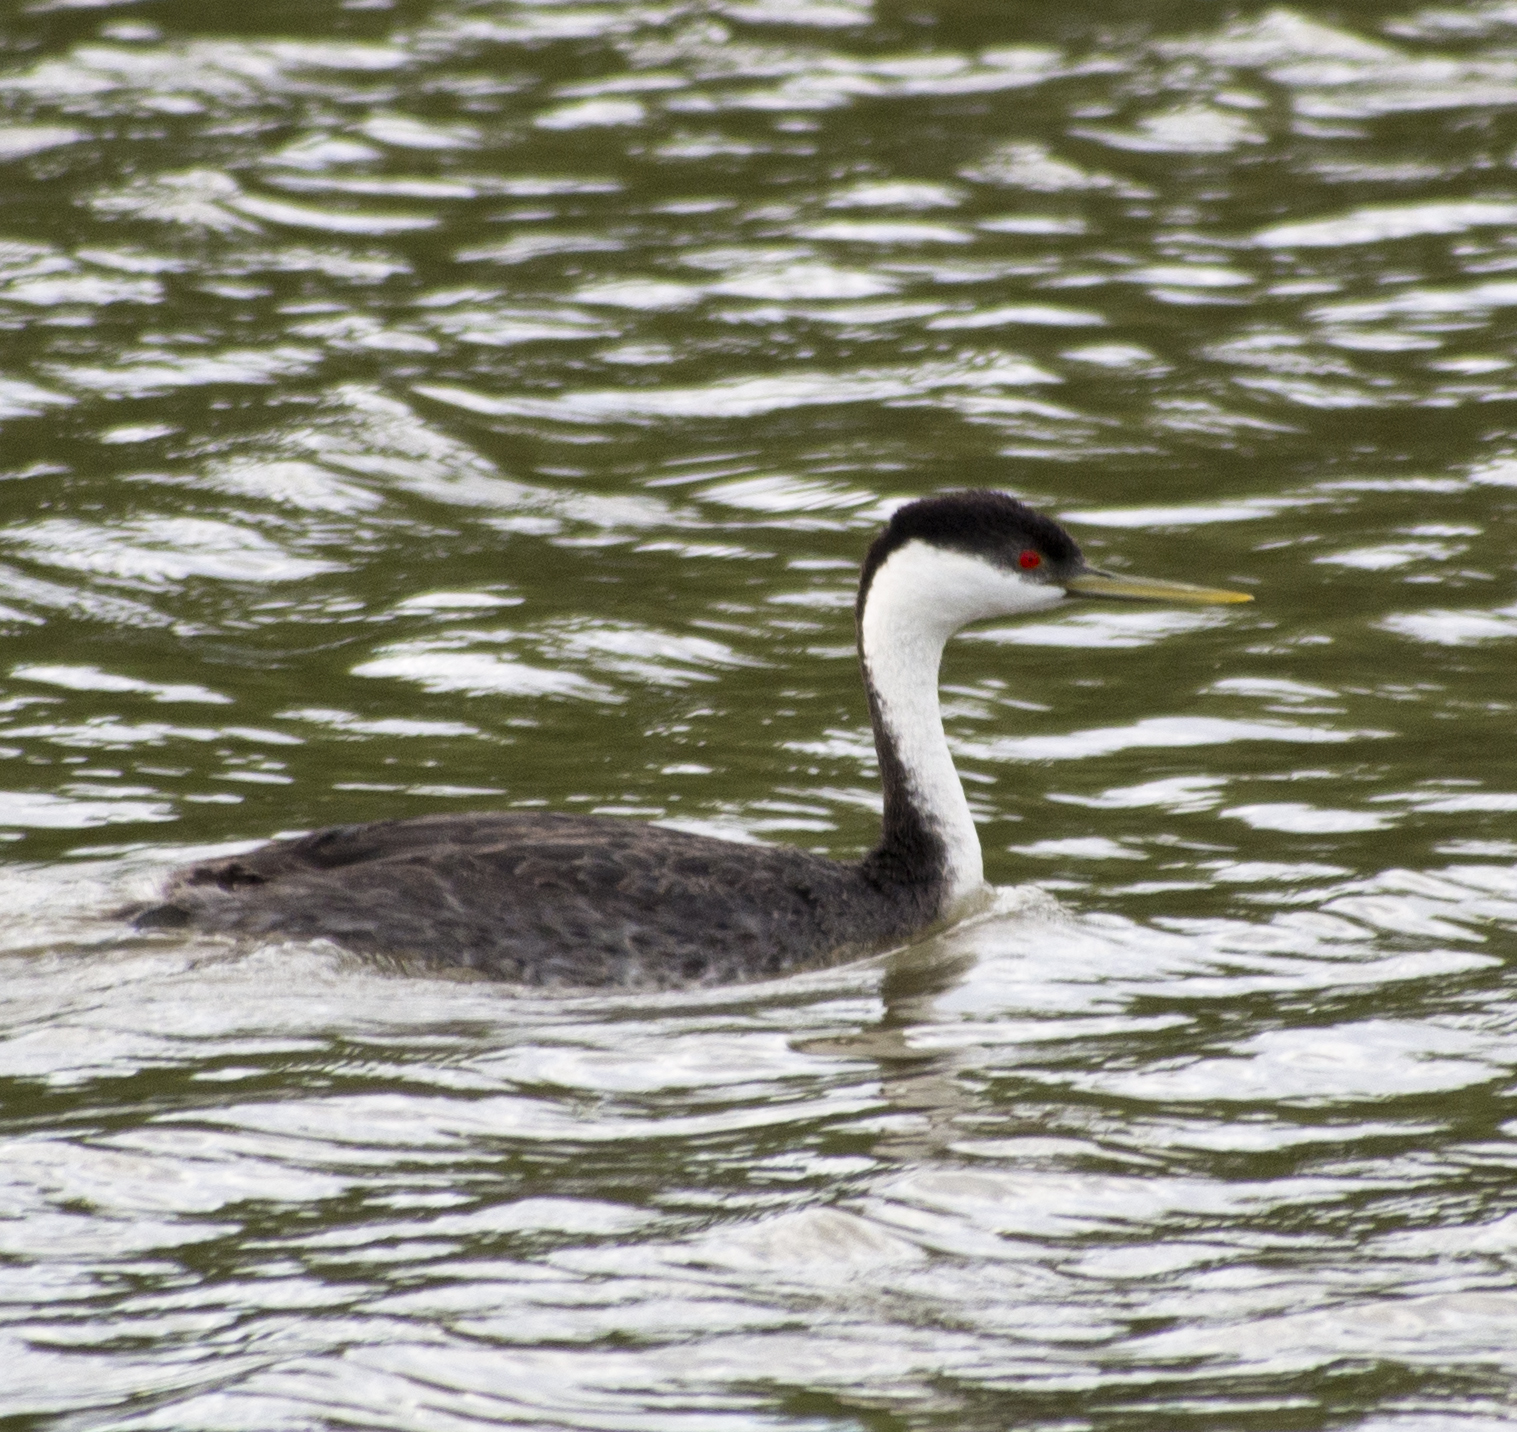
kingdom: Animalia
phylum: Chordata
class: Aves
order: Podicipediformes
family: Podicipedidae
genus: Aechmophorus
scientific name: Aechmophorus occidentalis
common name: Western grebe
